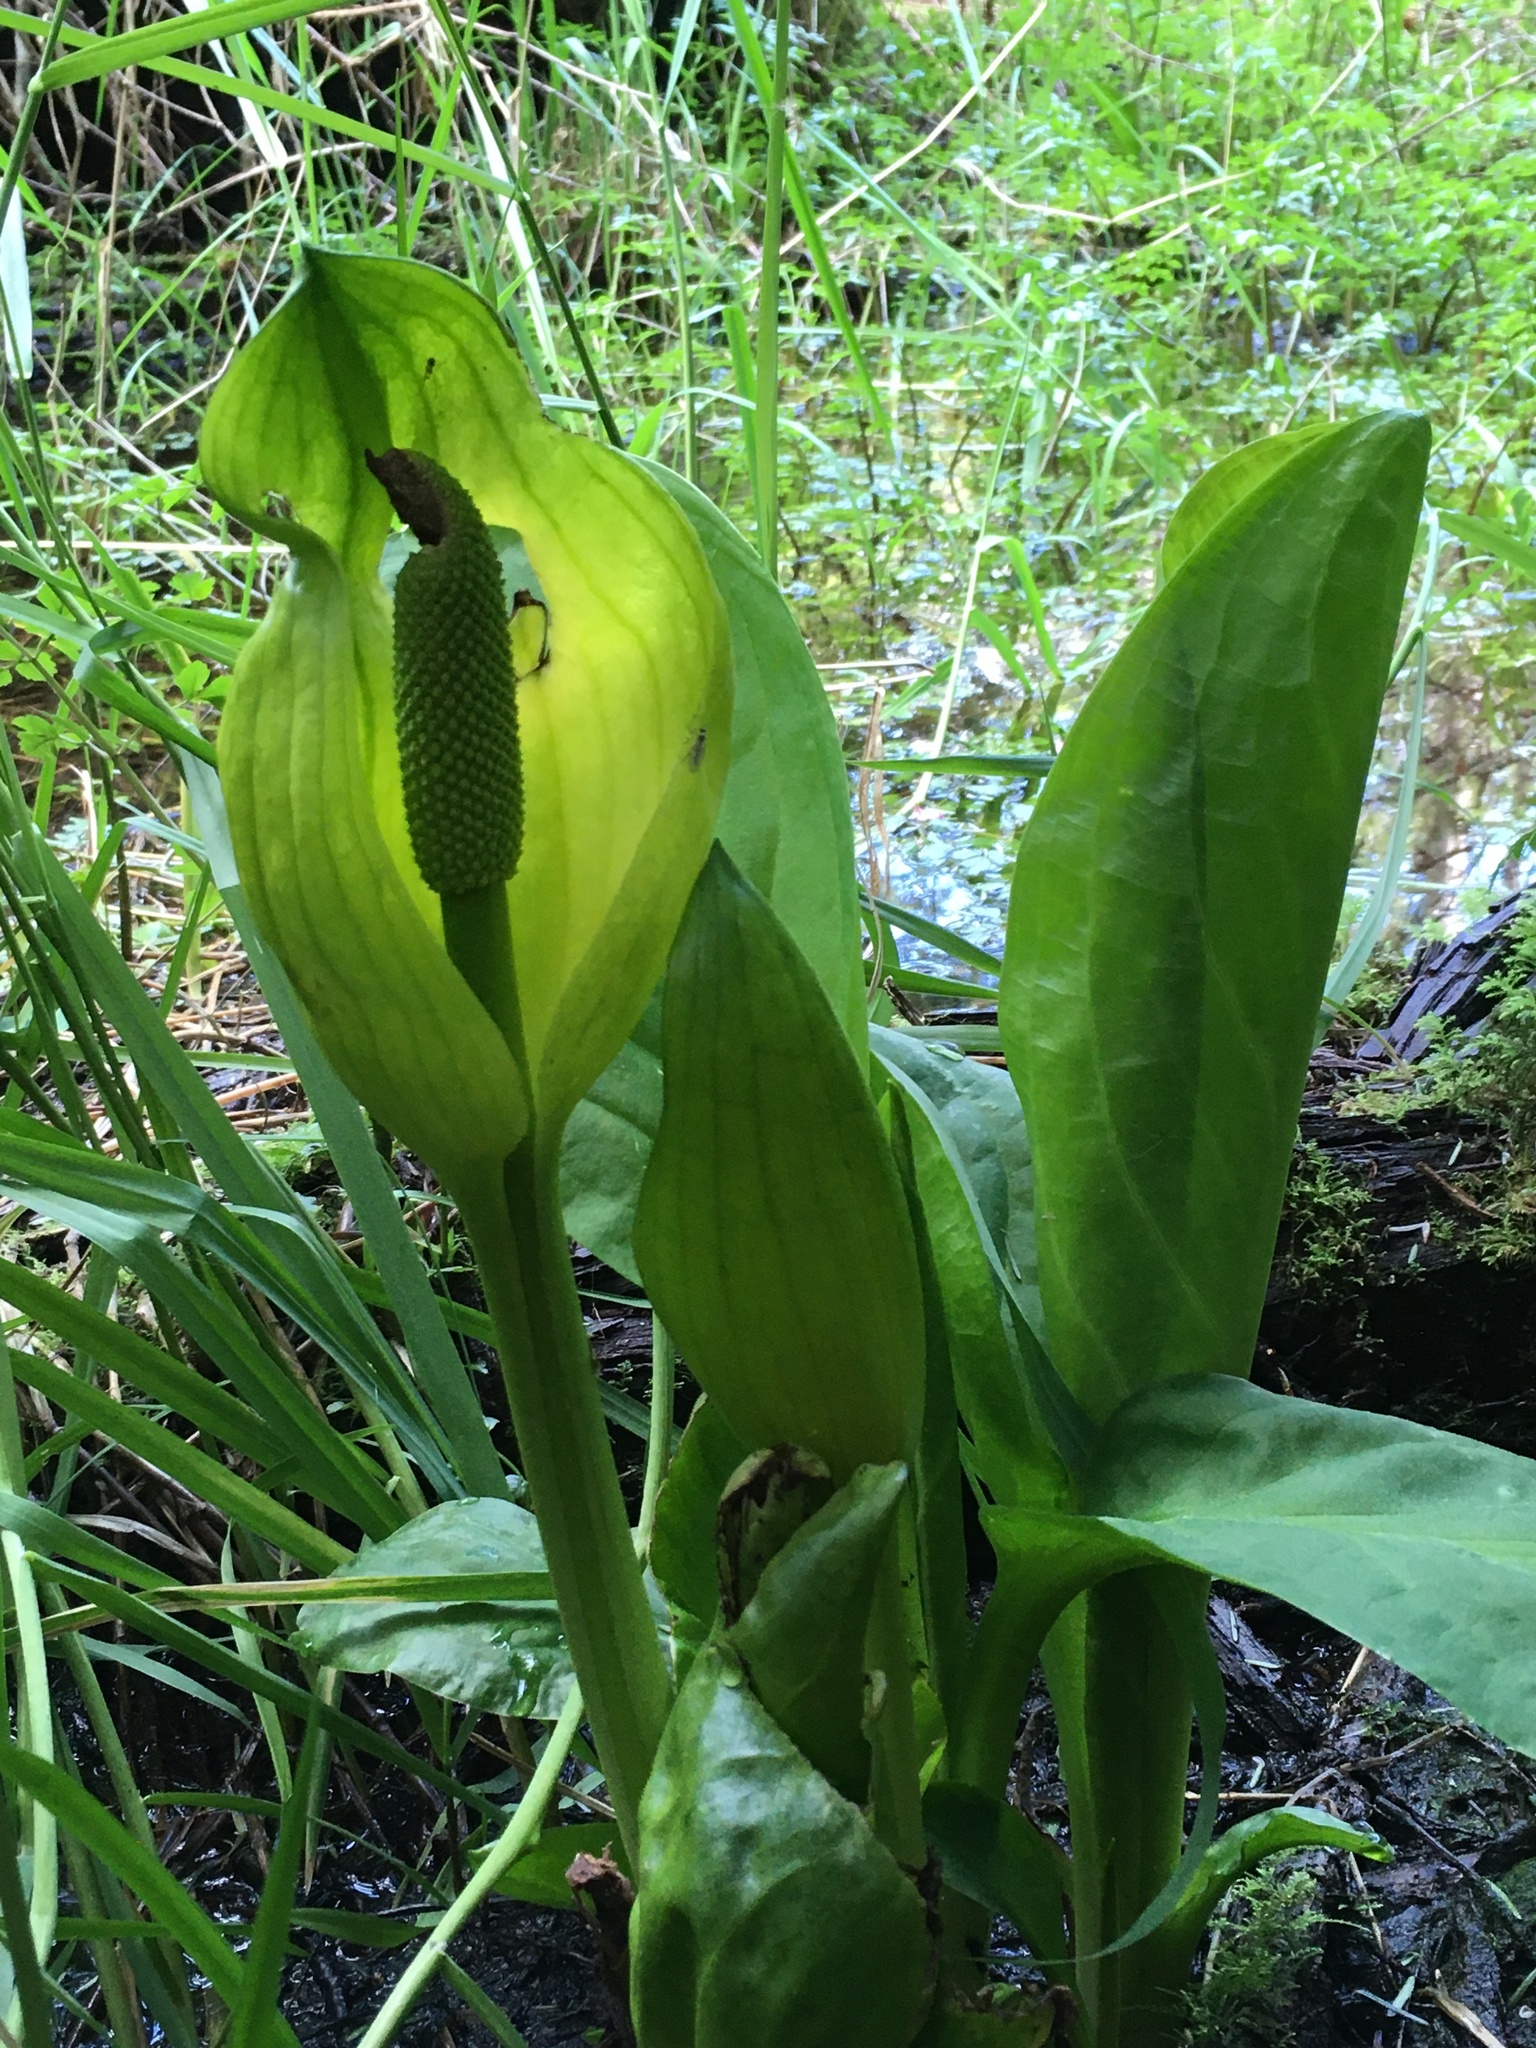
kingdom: Plantae
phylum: Tracheophyta
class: Liliopsida
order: Alismatales
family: Araceae
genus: Lysichiton
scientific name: Lysichiton americanus
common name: American skunk cabbage
